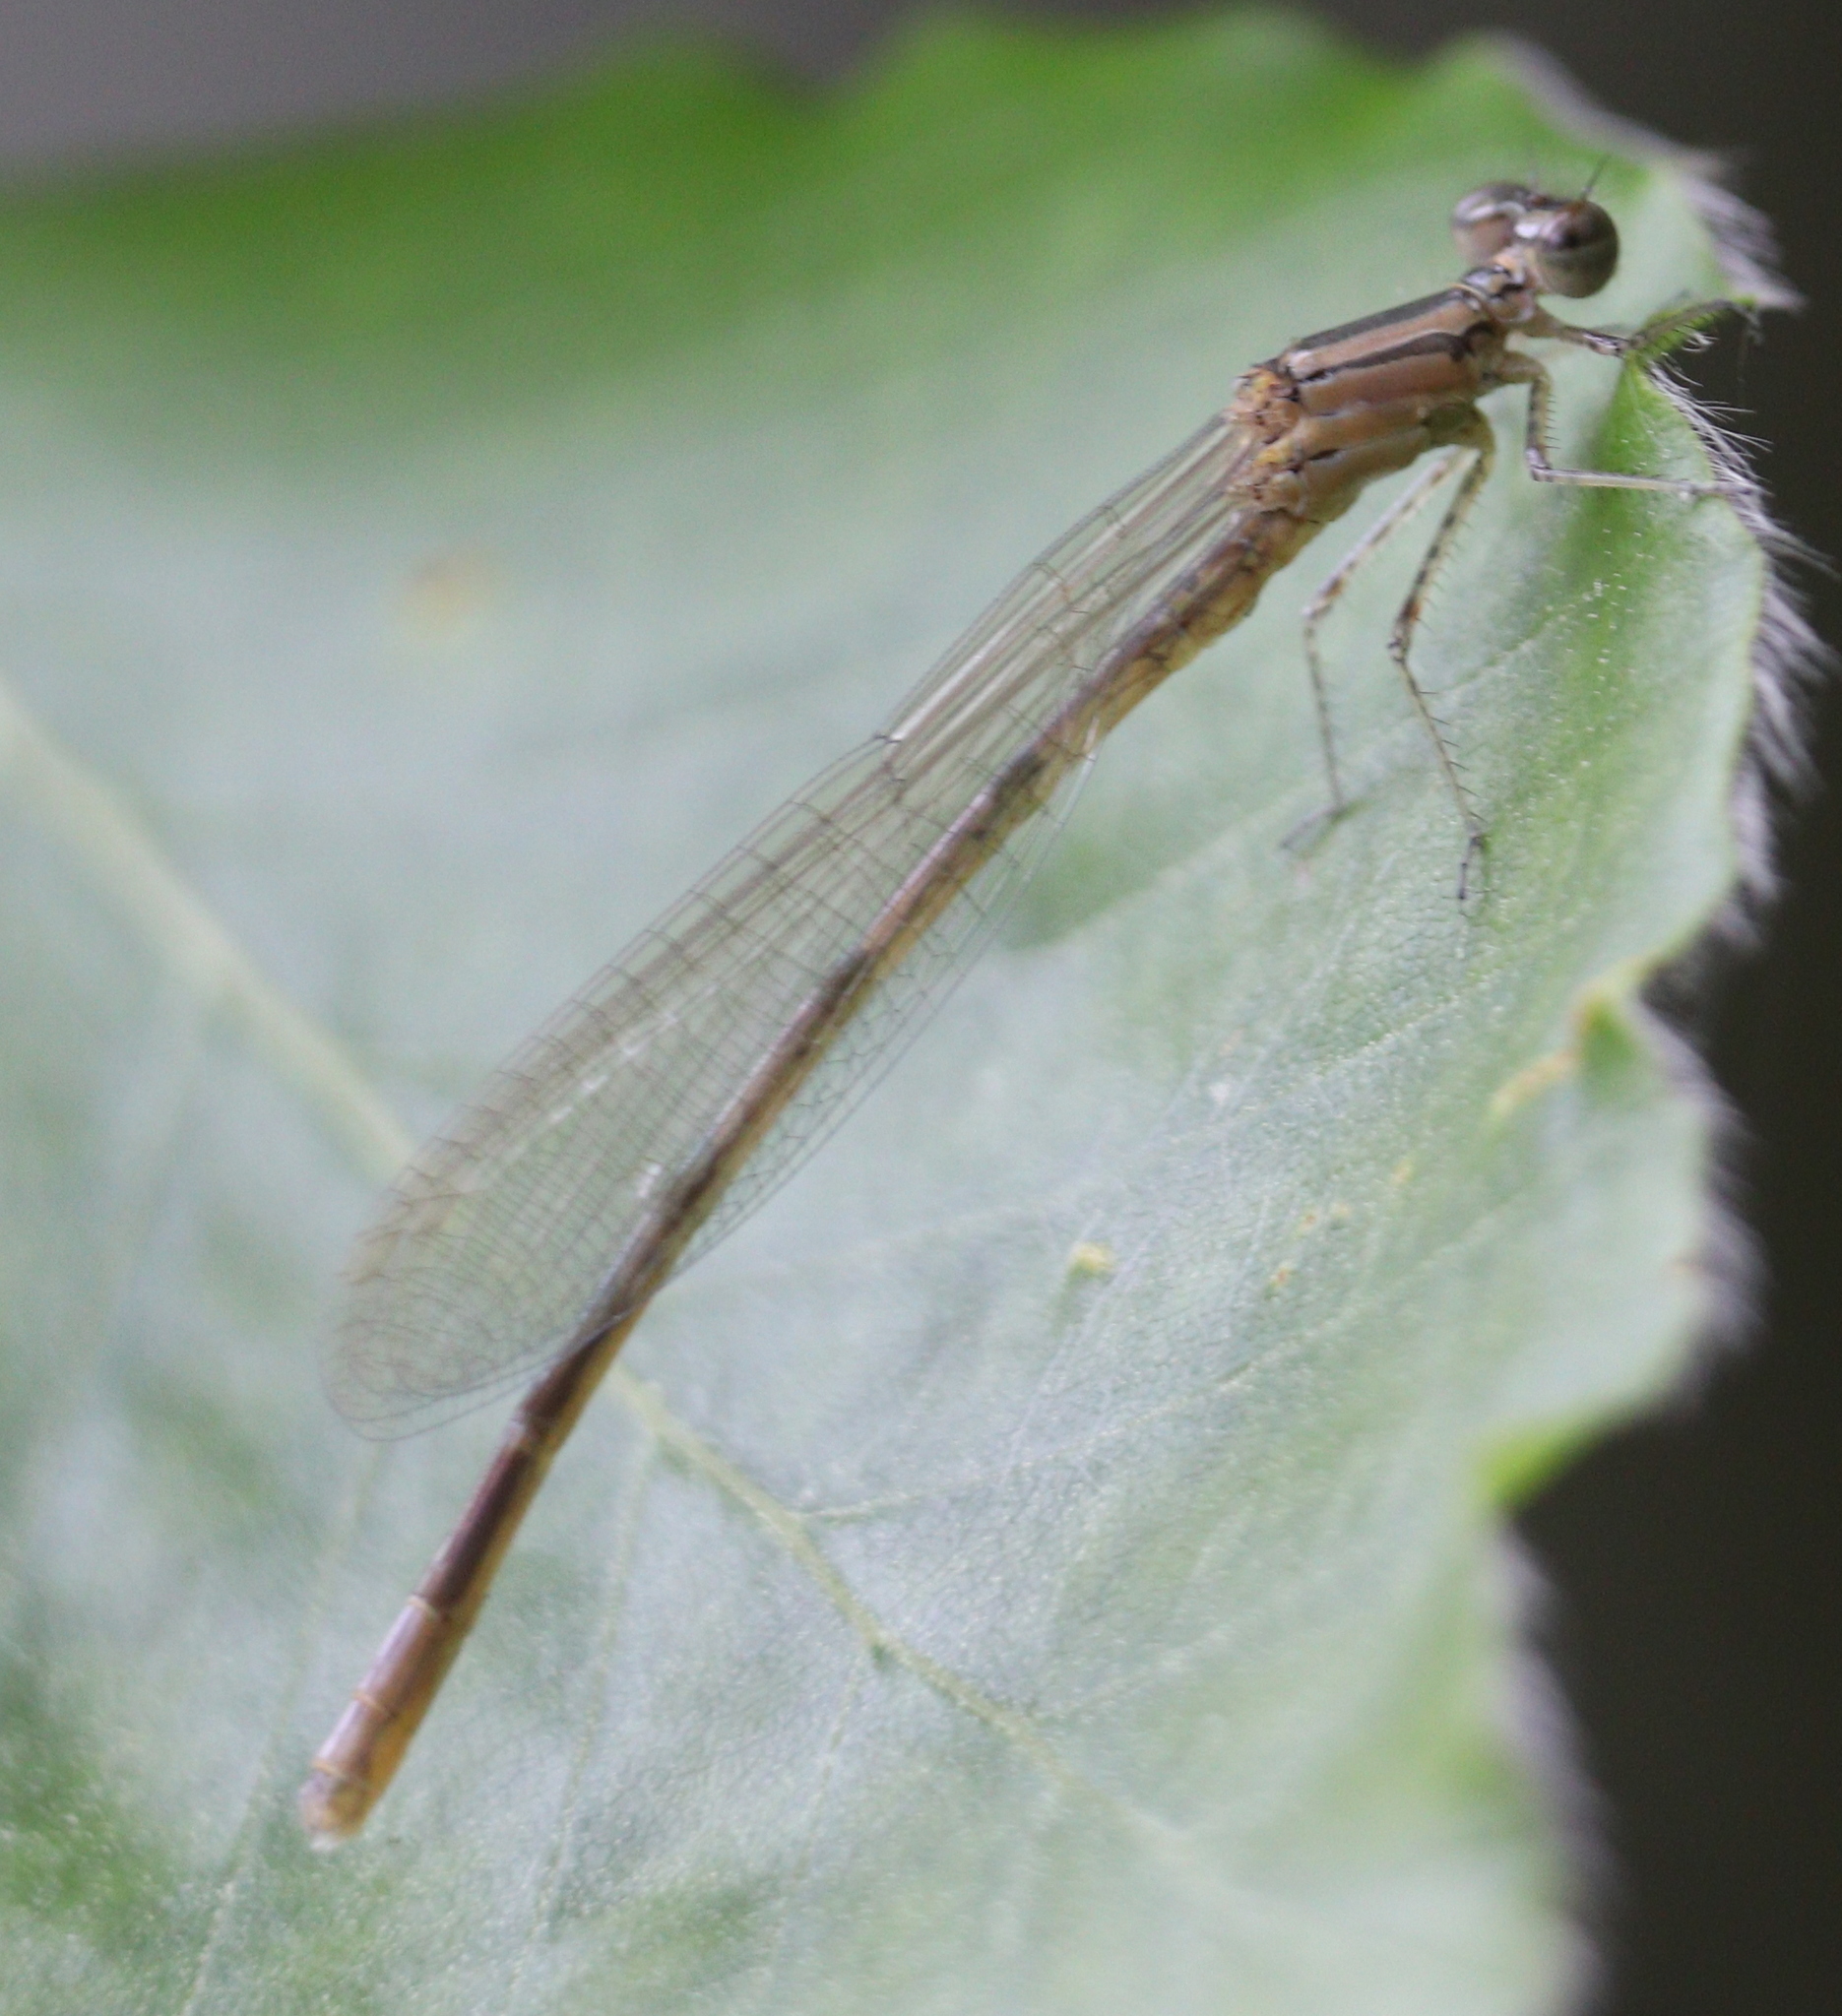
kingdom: Animalia
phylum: Arthropoda
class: Insecta
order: Odonata
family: Coenagrionidae
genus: Enallagma
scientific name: Enallagma cyathigerum
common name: Common blue damselfly
